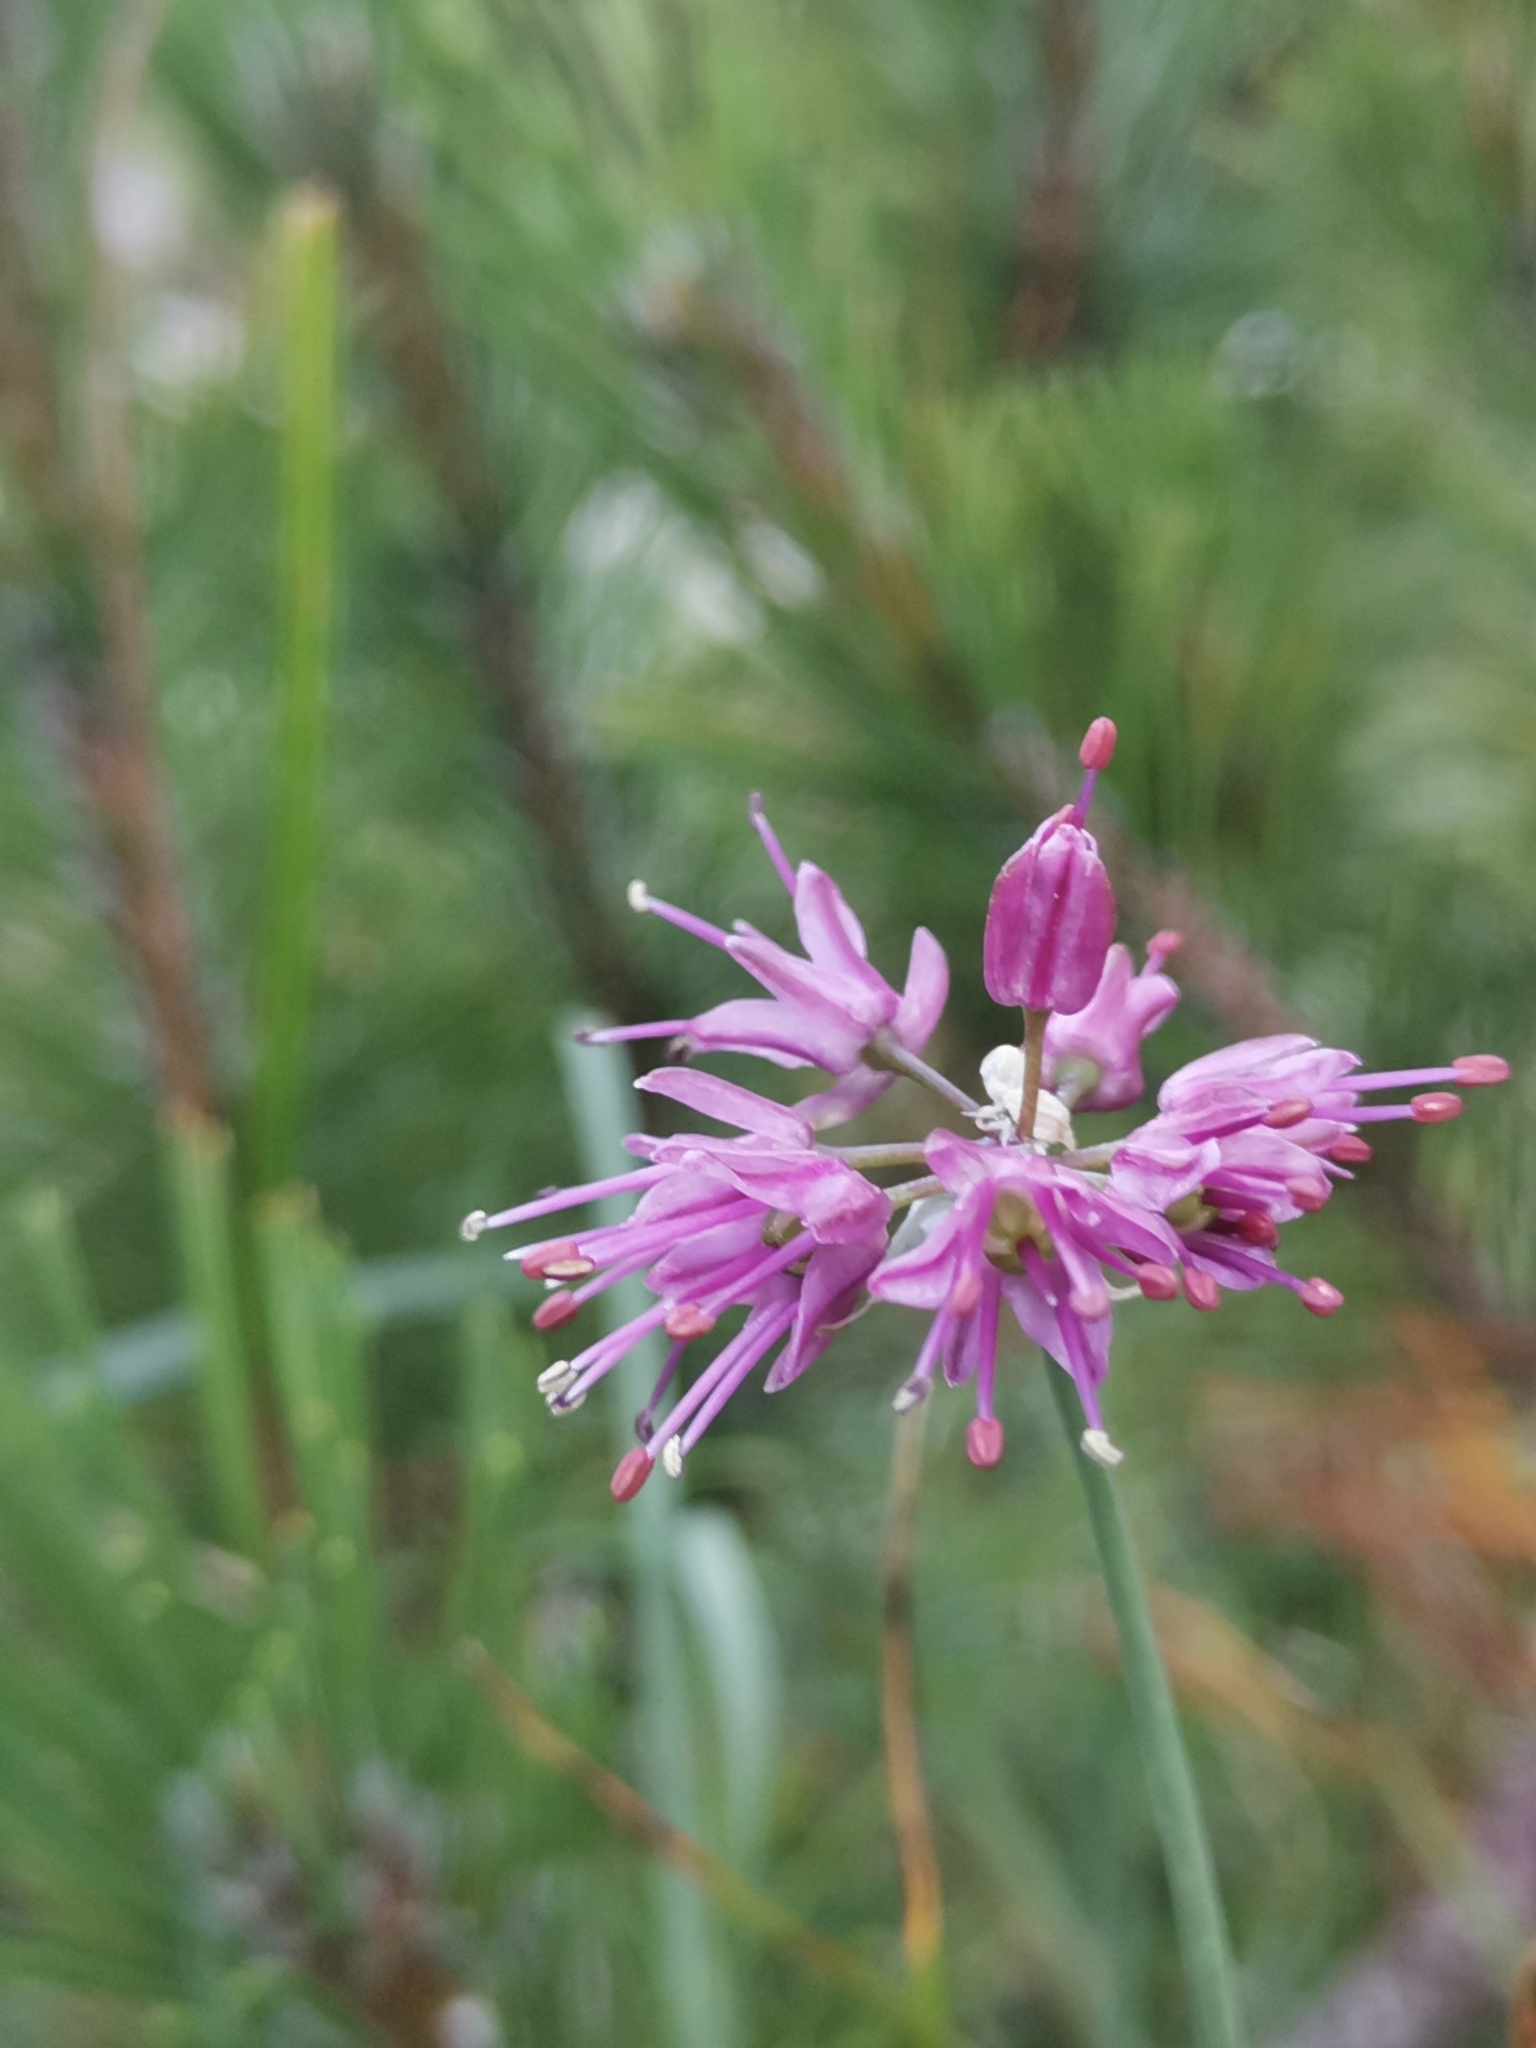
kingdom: Plantae
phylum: Tracheophyta
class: Liliopsida
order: Asparagales
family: Amaryllidaceae
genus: Allium
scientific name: Allium kermesinum
